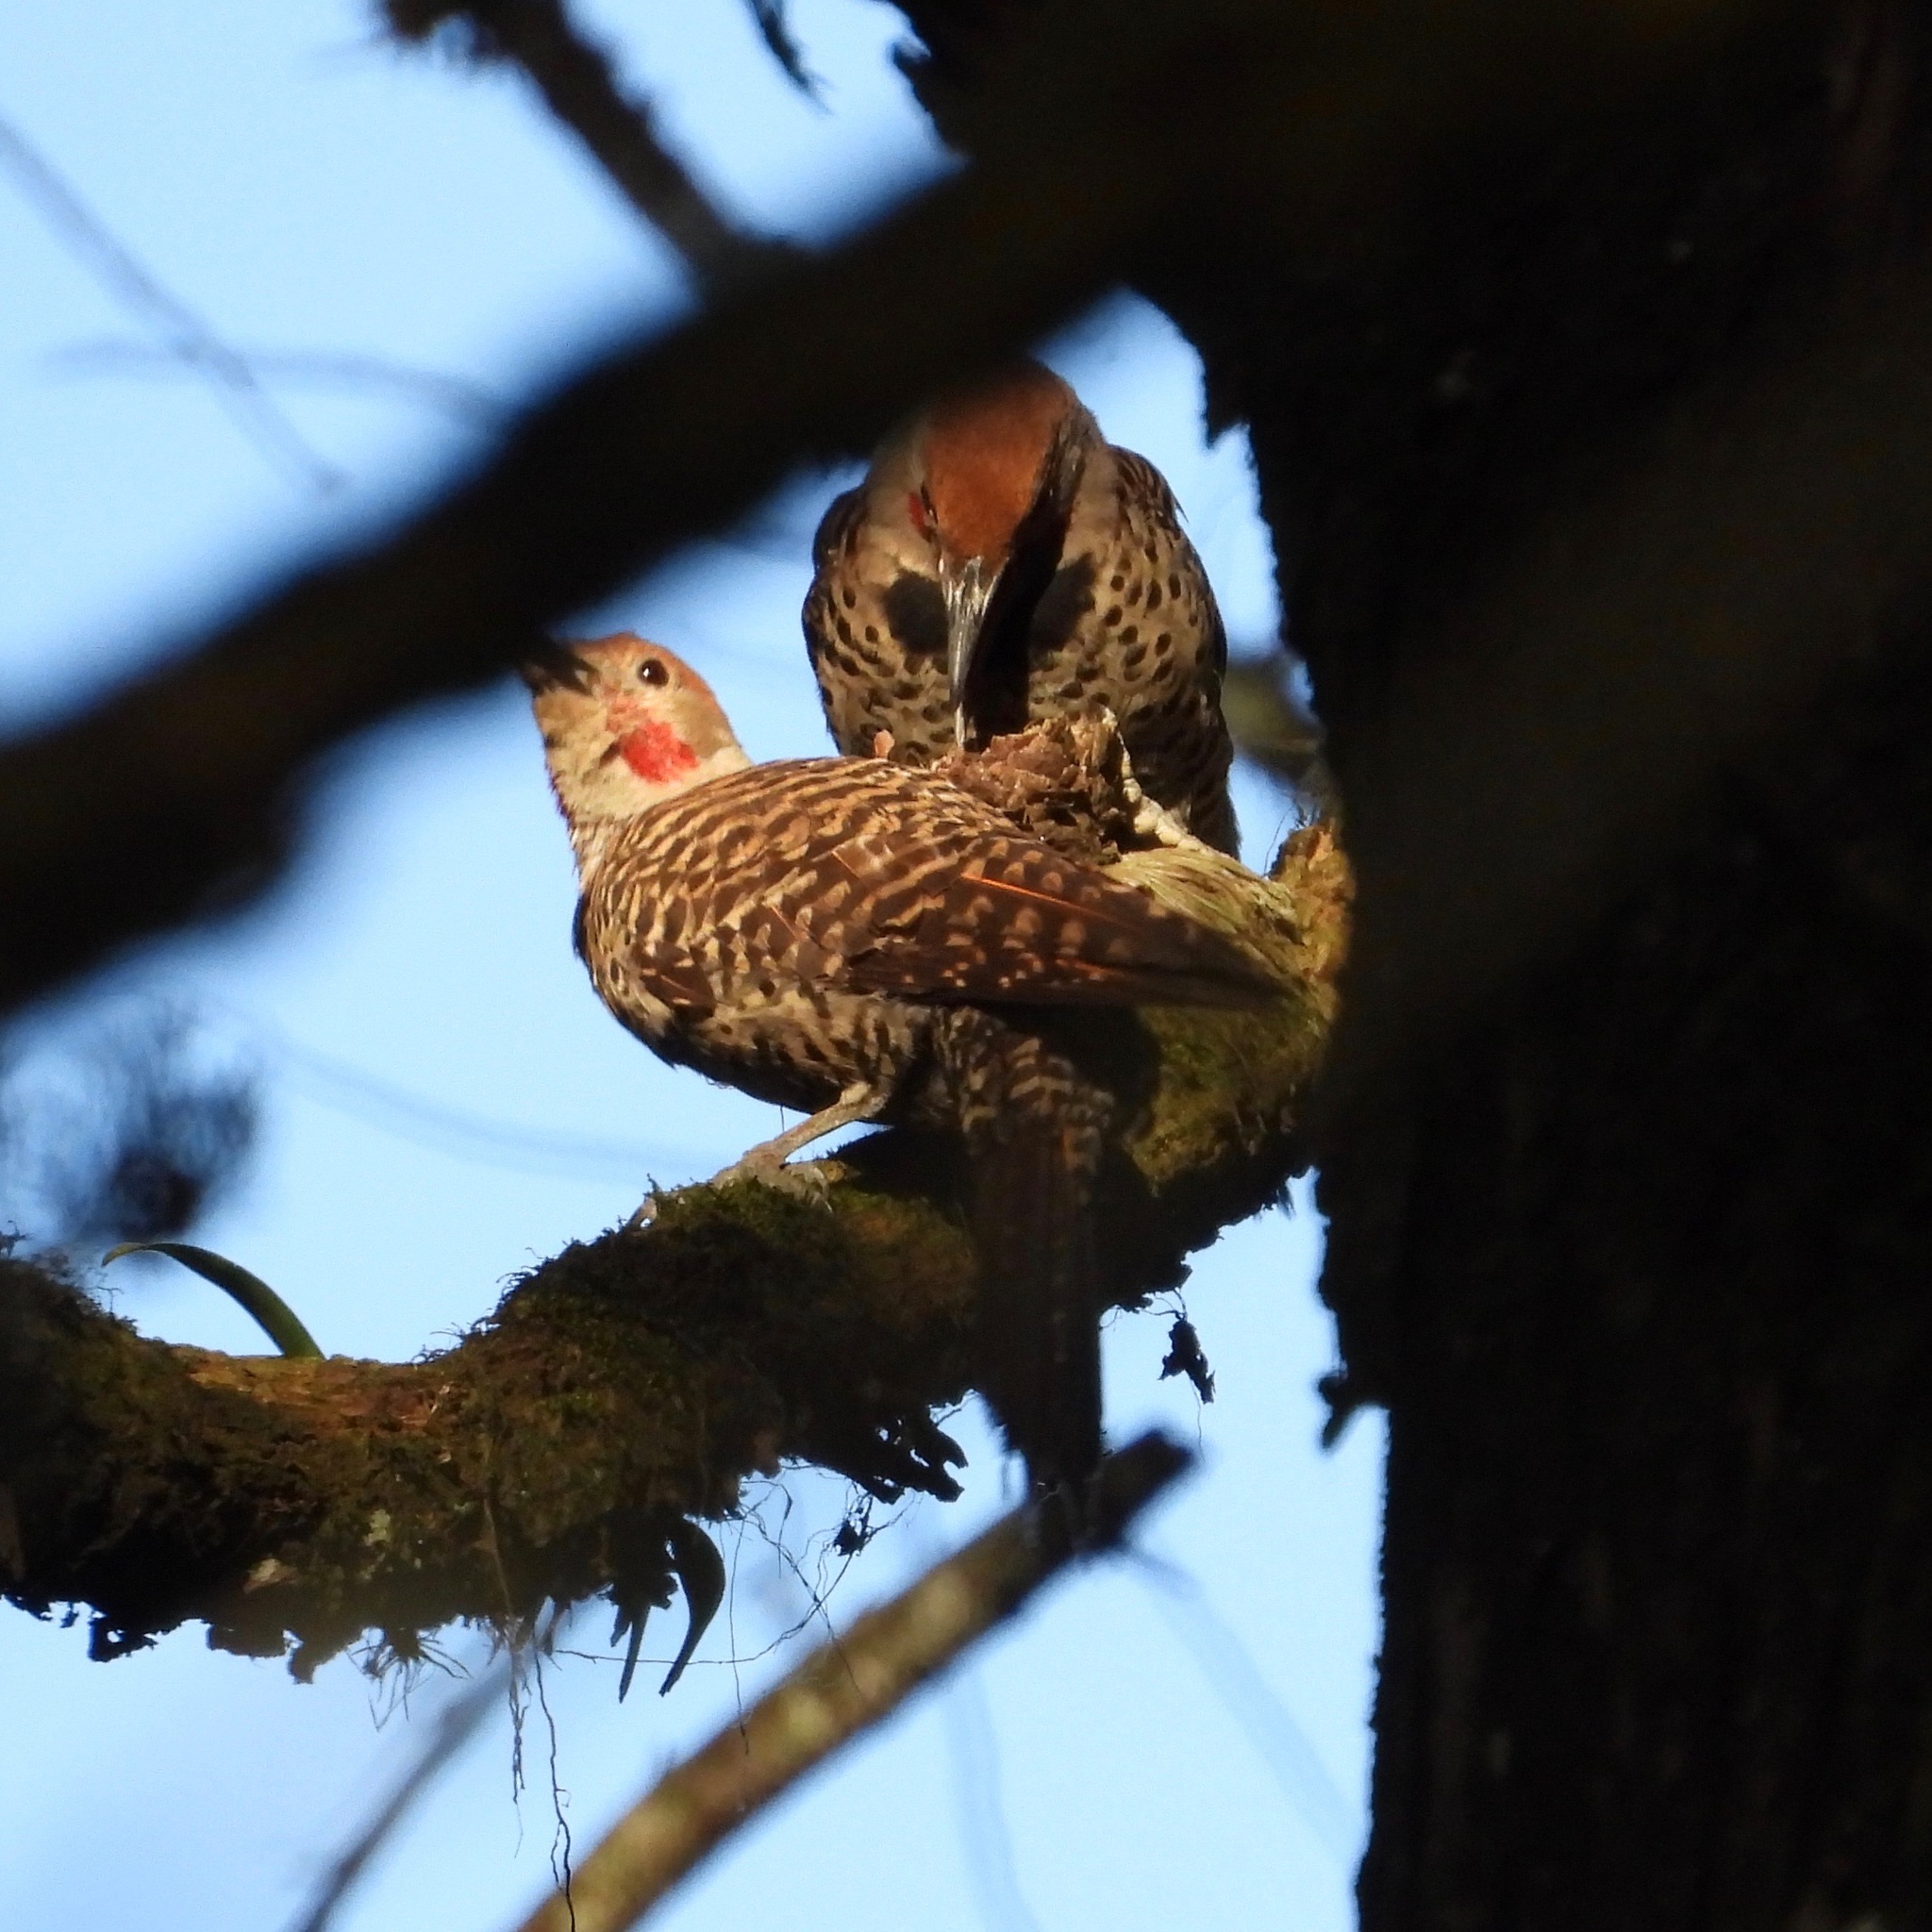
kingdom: Animalia
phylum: Chordata
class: Aves
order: Piciformes
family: Picidae
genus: Colaptes
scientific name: Colaptes auratus
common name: Northern flicker
